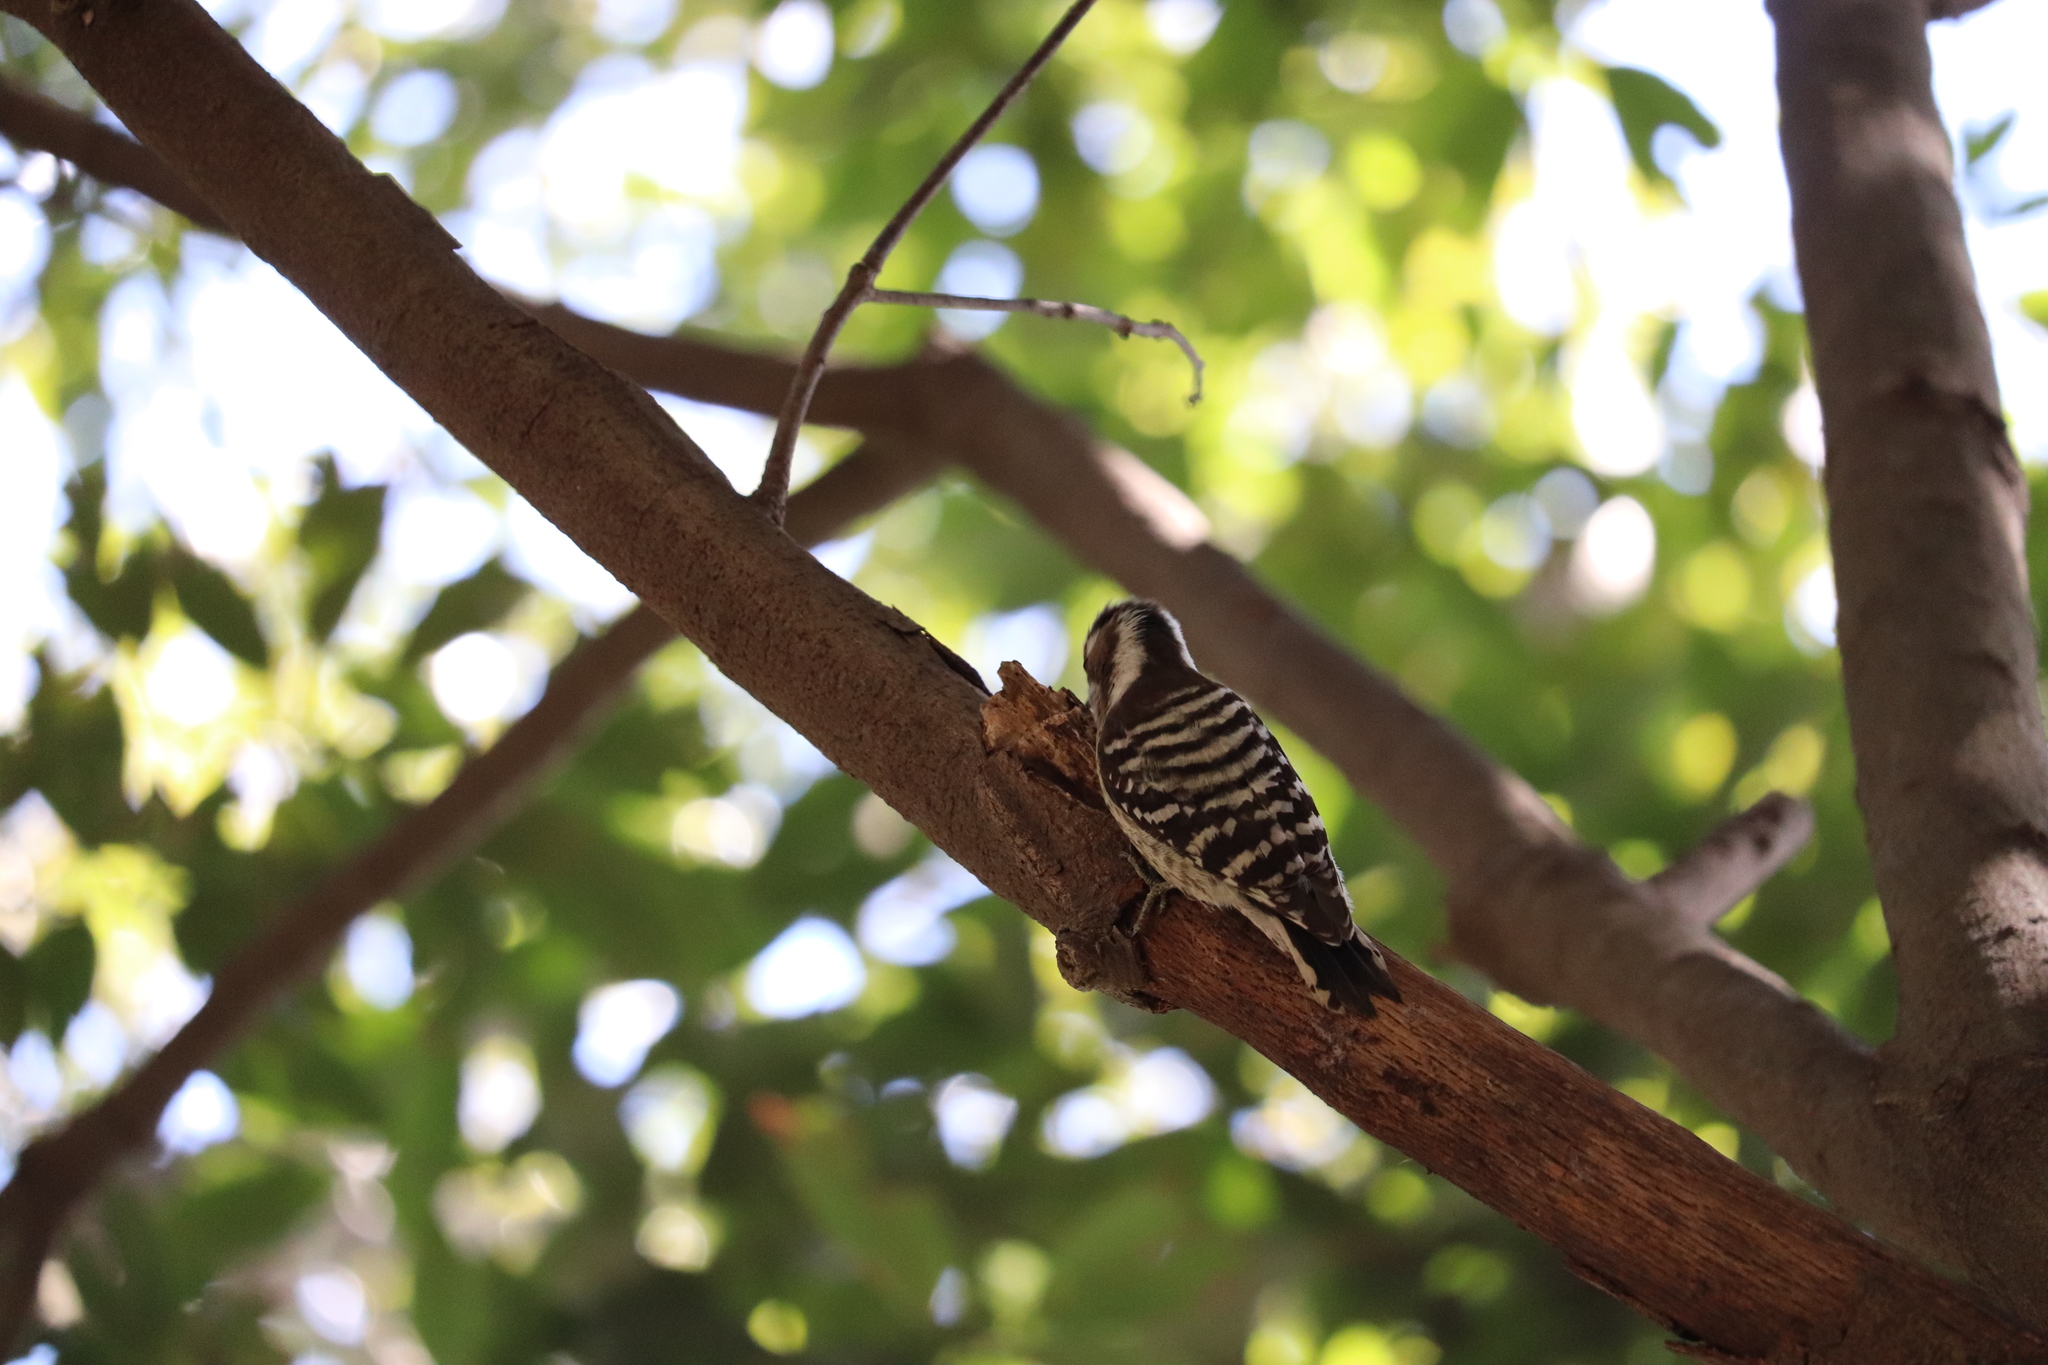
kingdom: Animalia
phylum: Chordata
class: Aves
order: Piciformes
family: Picidae
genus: Yungipicus
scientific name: Yungipicus kizuki
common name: Japanese pygmy woodpecker
